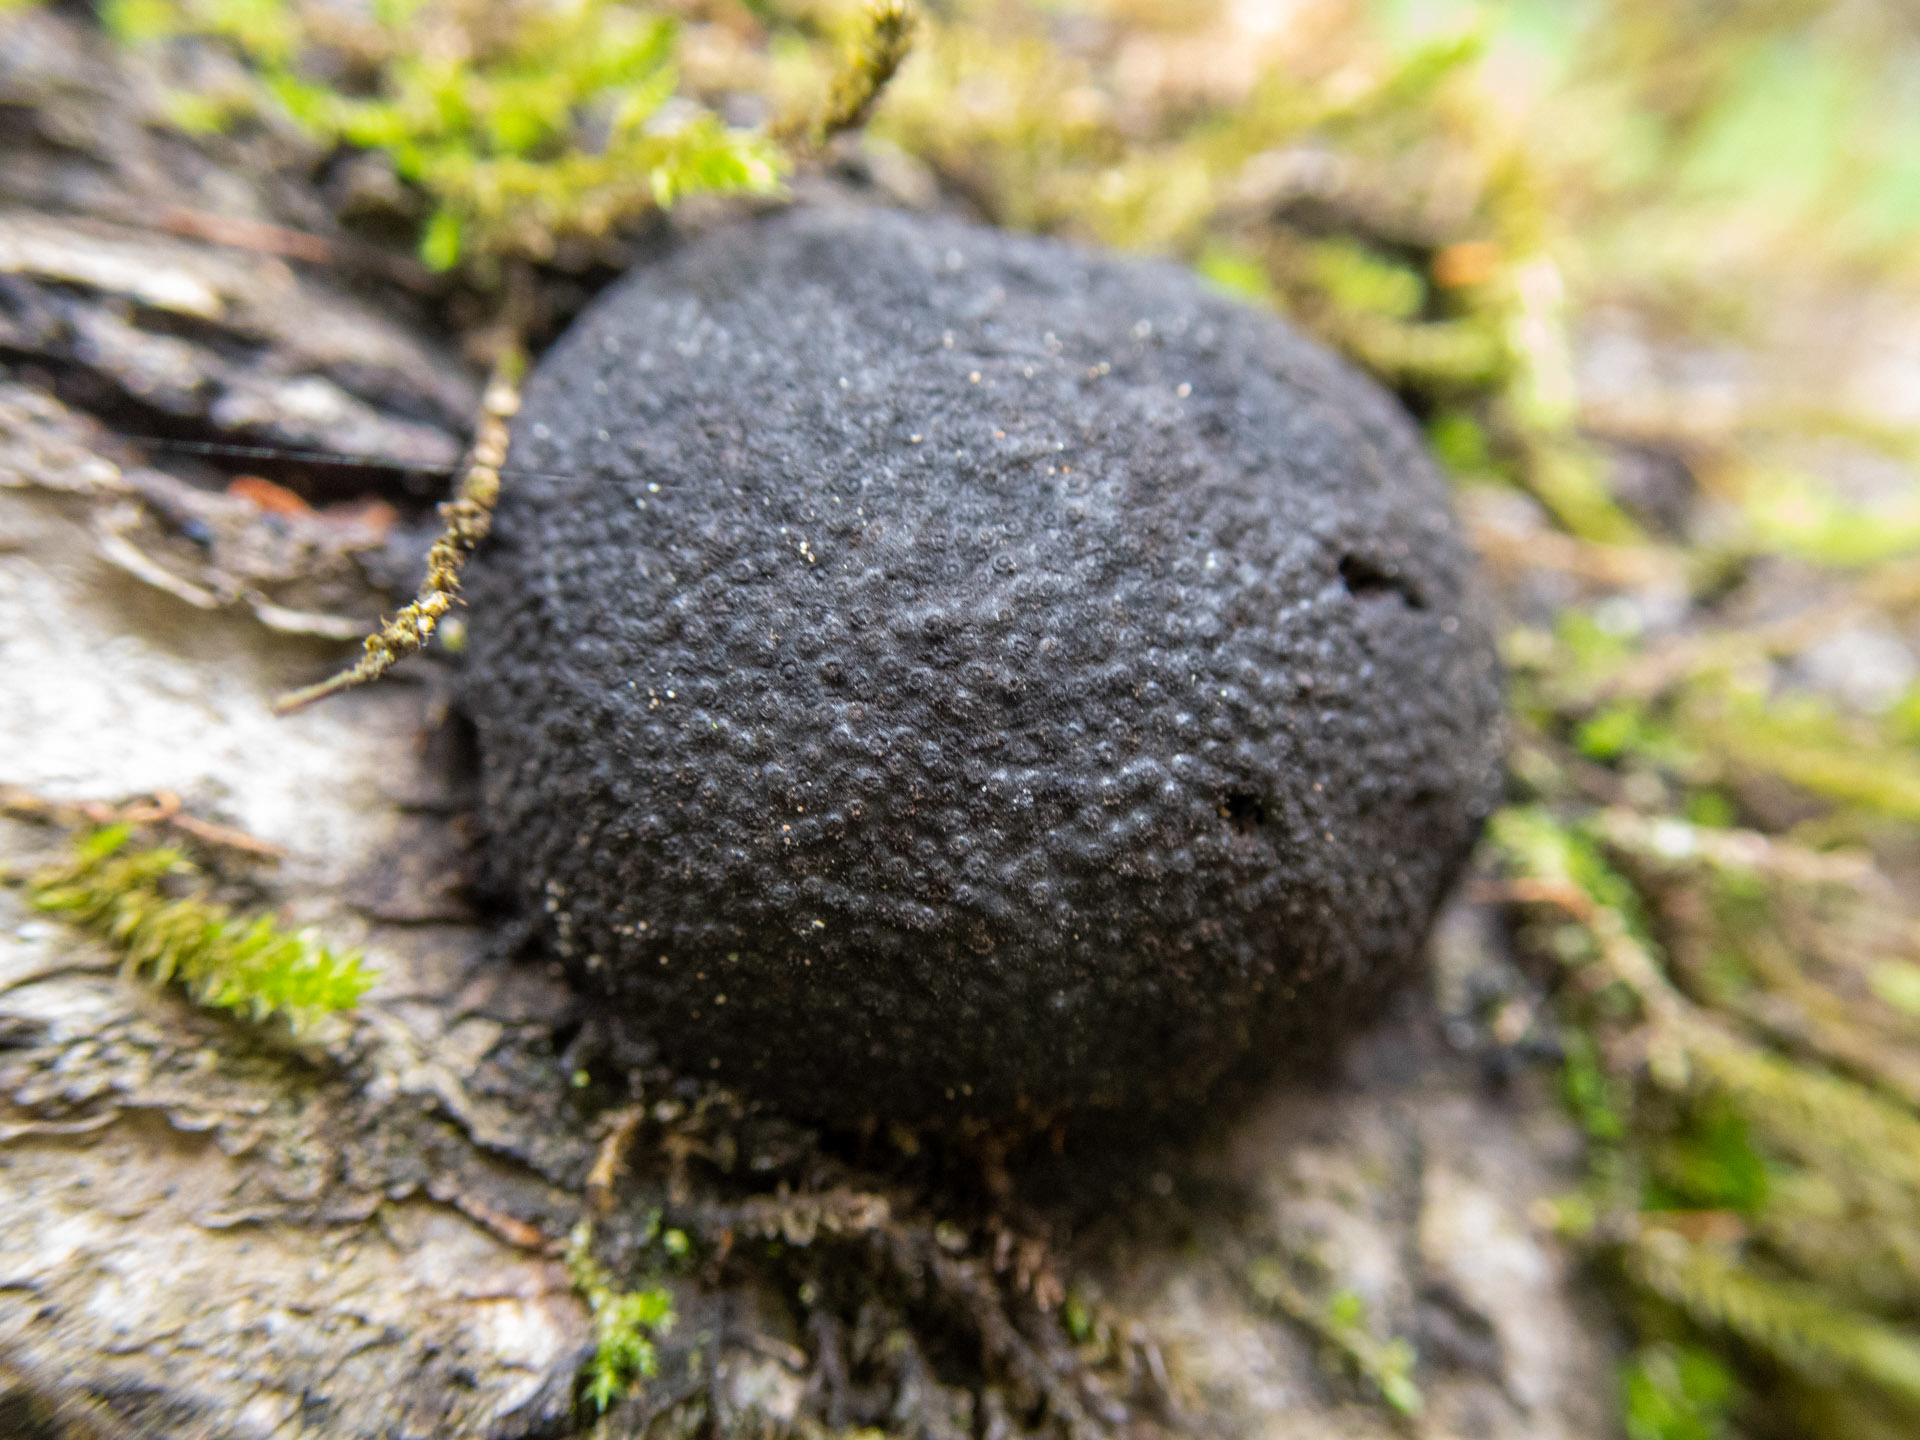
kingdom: Fungi
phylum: Ascomycota
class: Sordariomycetes
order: Xylariales
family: Hypoxylaceae
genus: Annulohypoxylon
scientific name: Annulohypoxylon thouarsianum
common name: Cramp balls
